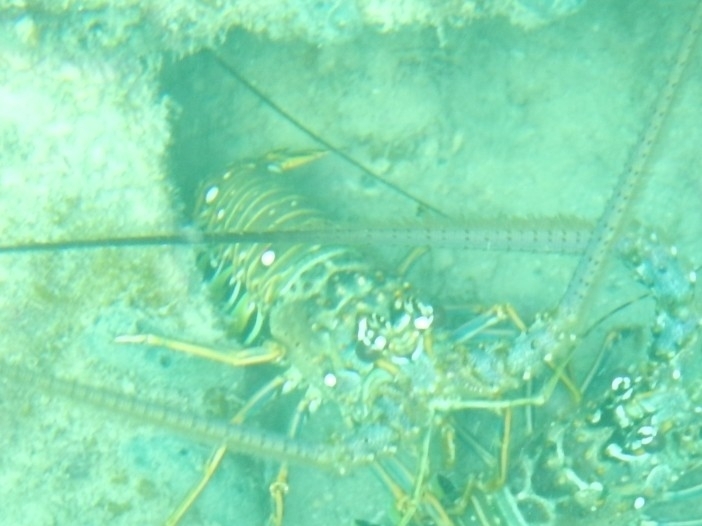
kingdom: Animalia
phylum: Arthropoda
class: Malacostraca
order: Decapoda
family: Palinuridae
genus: Panulirus
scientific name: Panulirus argus
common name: Caribbean spiny lobster
